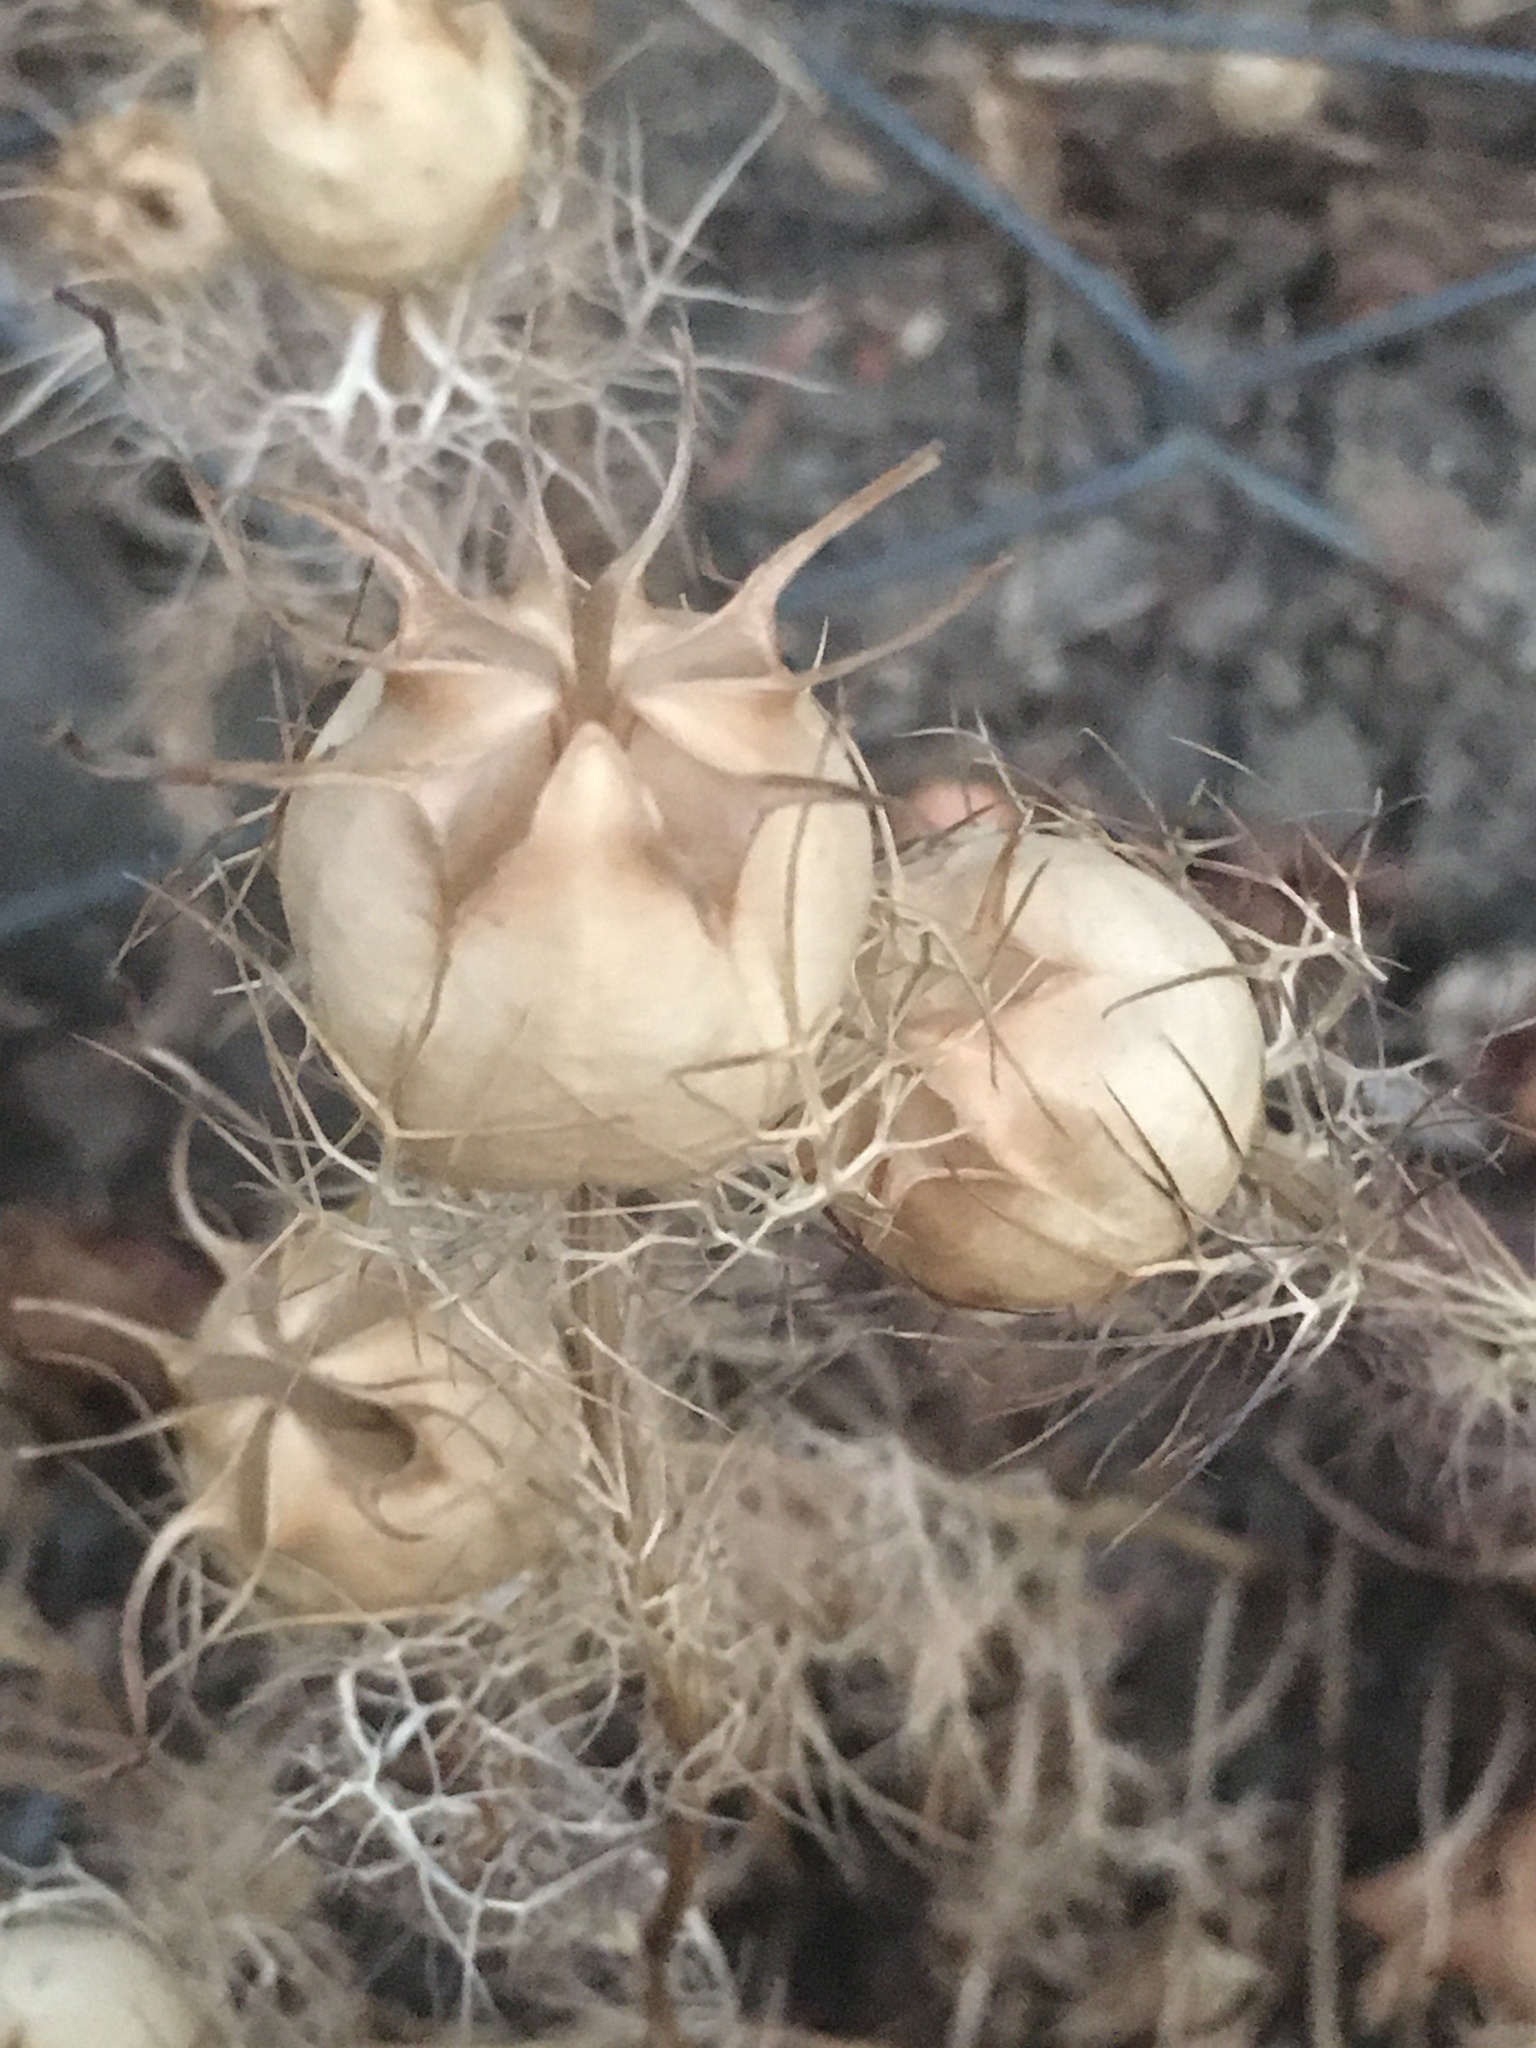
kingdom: Plantae
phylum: Tracheophyta
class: Magnoliopsida
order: Ranunculales
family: Ranunculaceae
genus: Nigella
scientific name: Nigella damascena
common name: Love-in-a-mist
